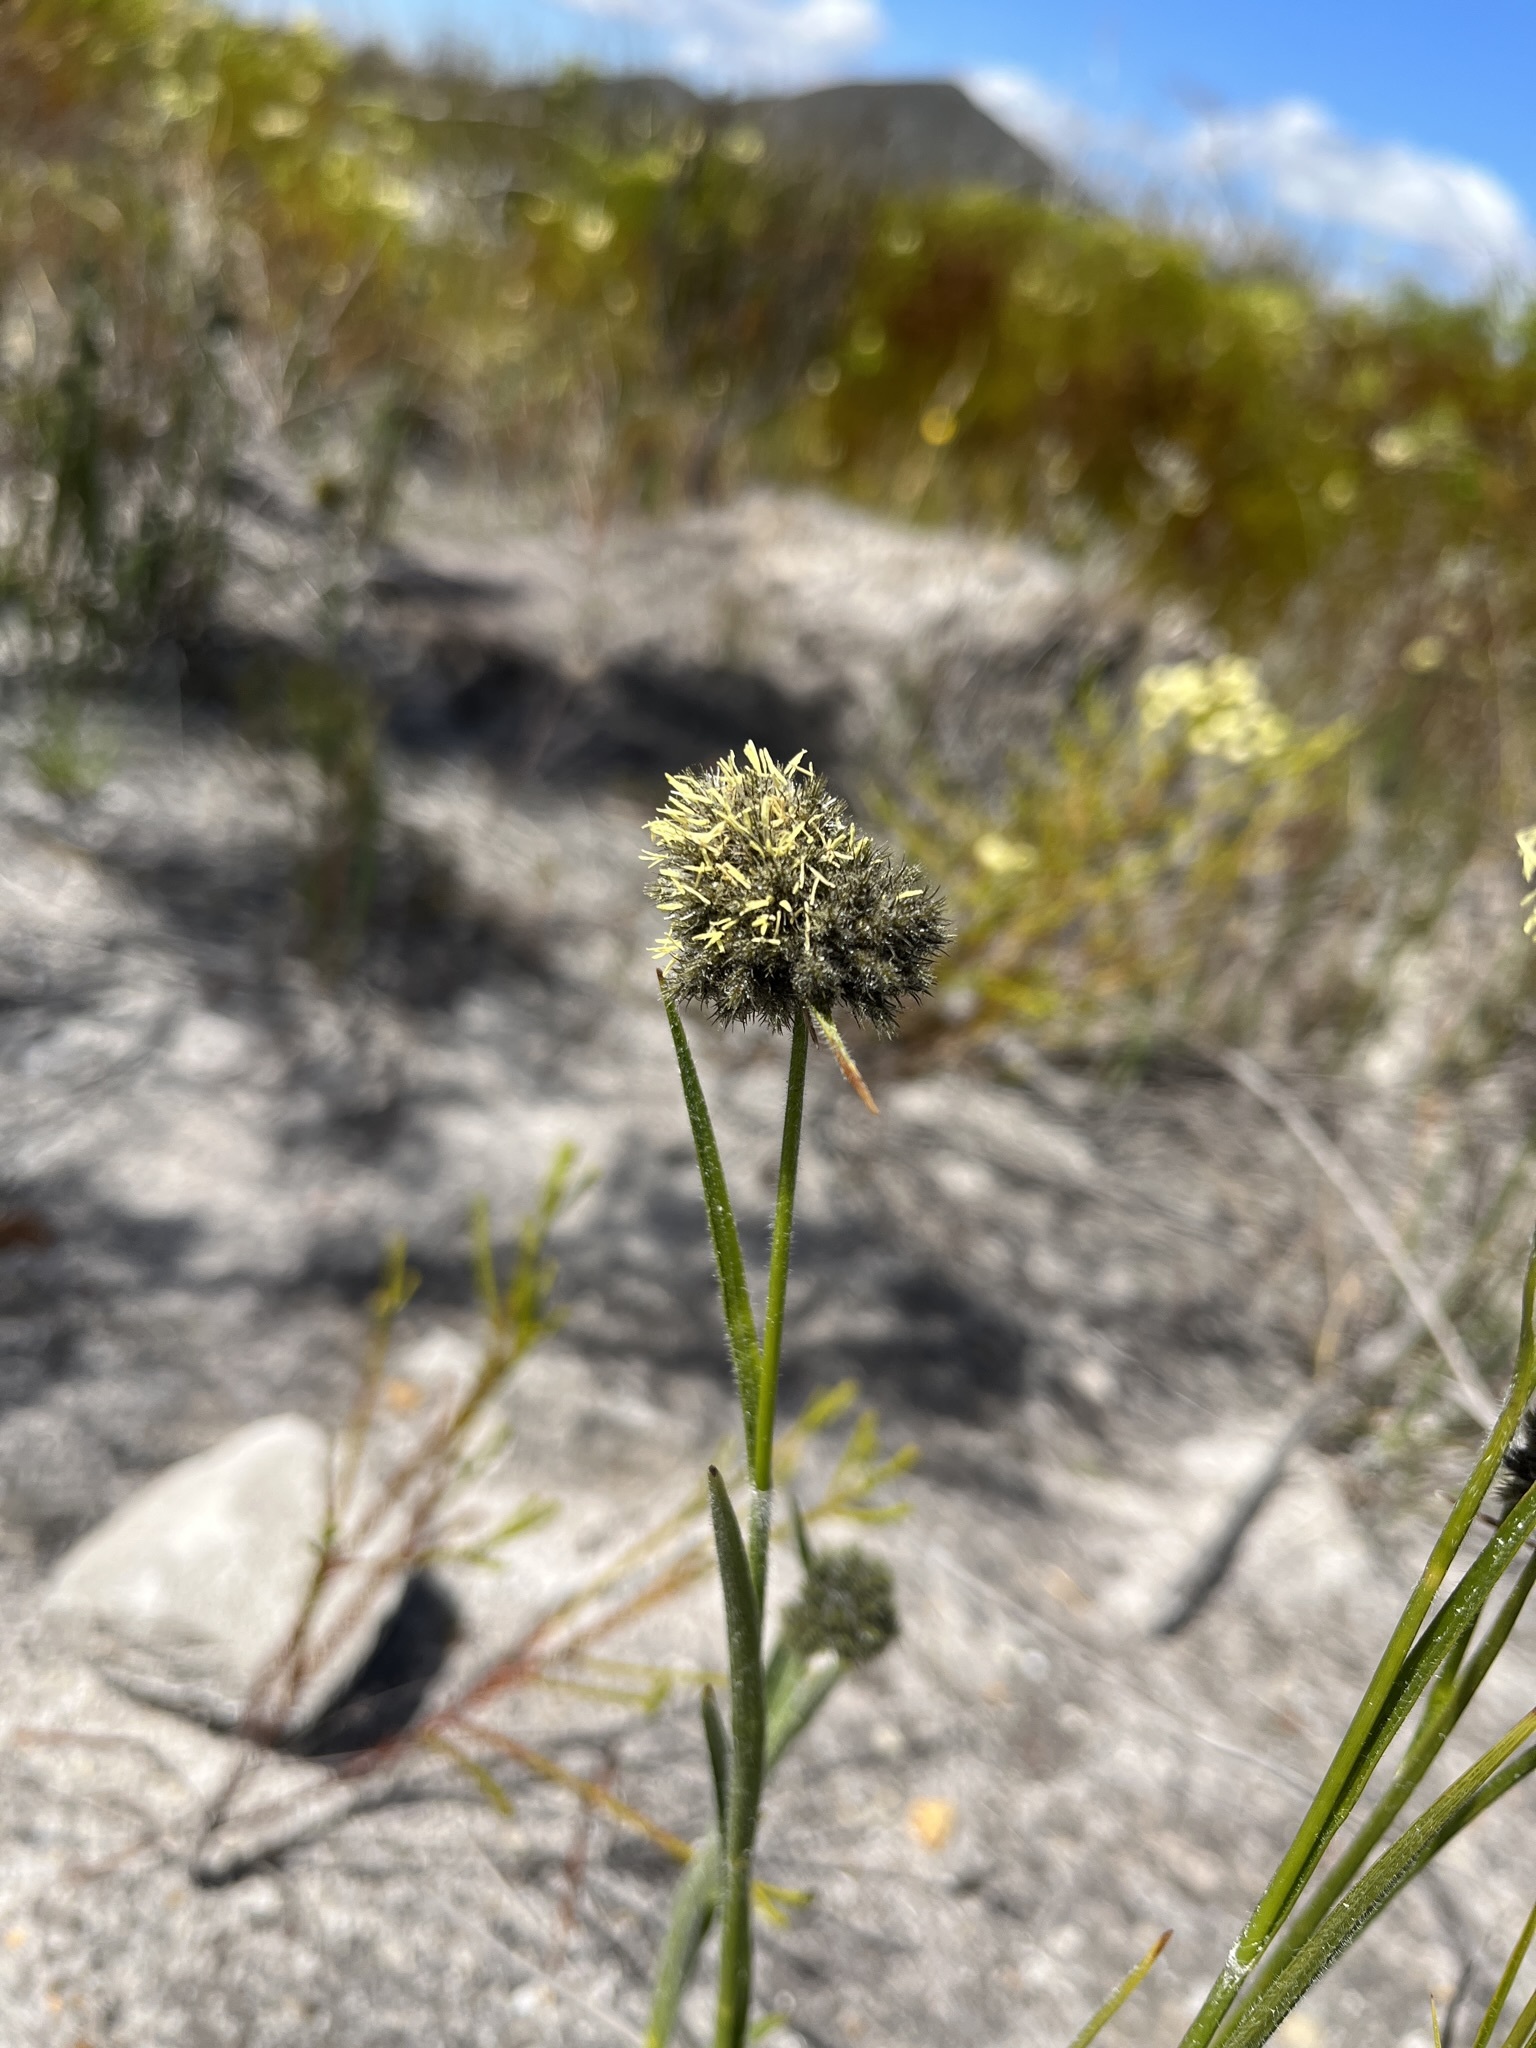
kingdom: Plantae
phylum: Tracheophyta
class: Liliopsida
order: Poales
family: Cyperaceae
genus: Fuirena
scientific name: Fuirena hirsuta
